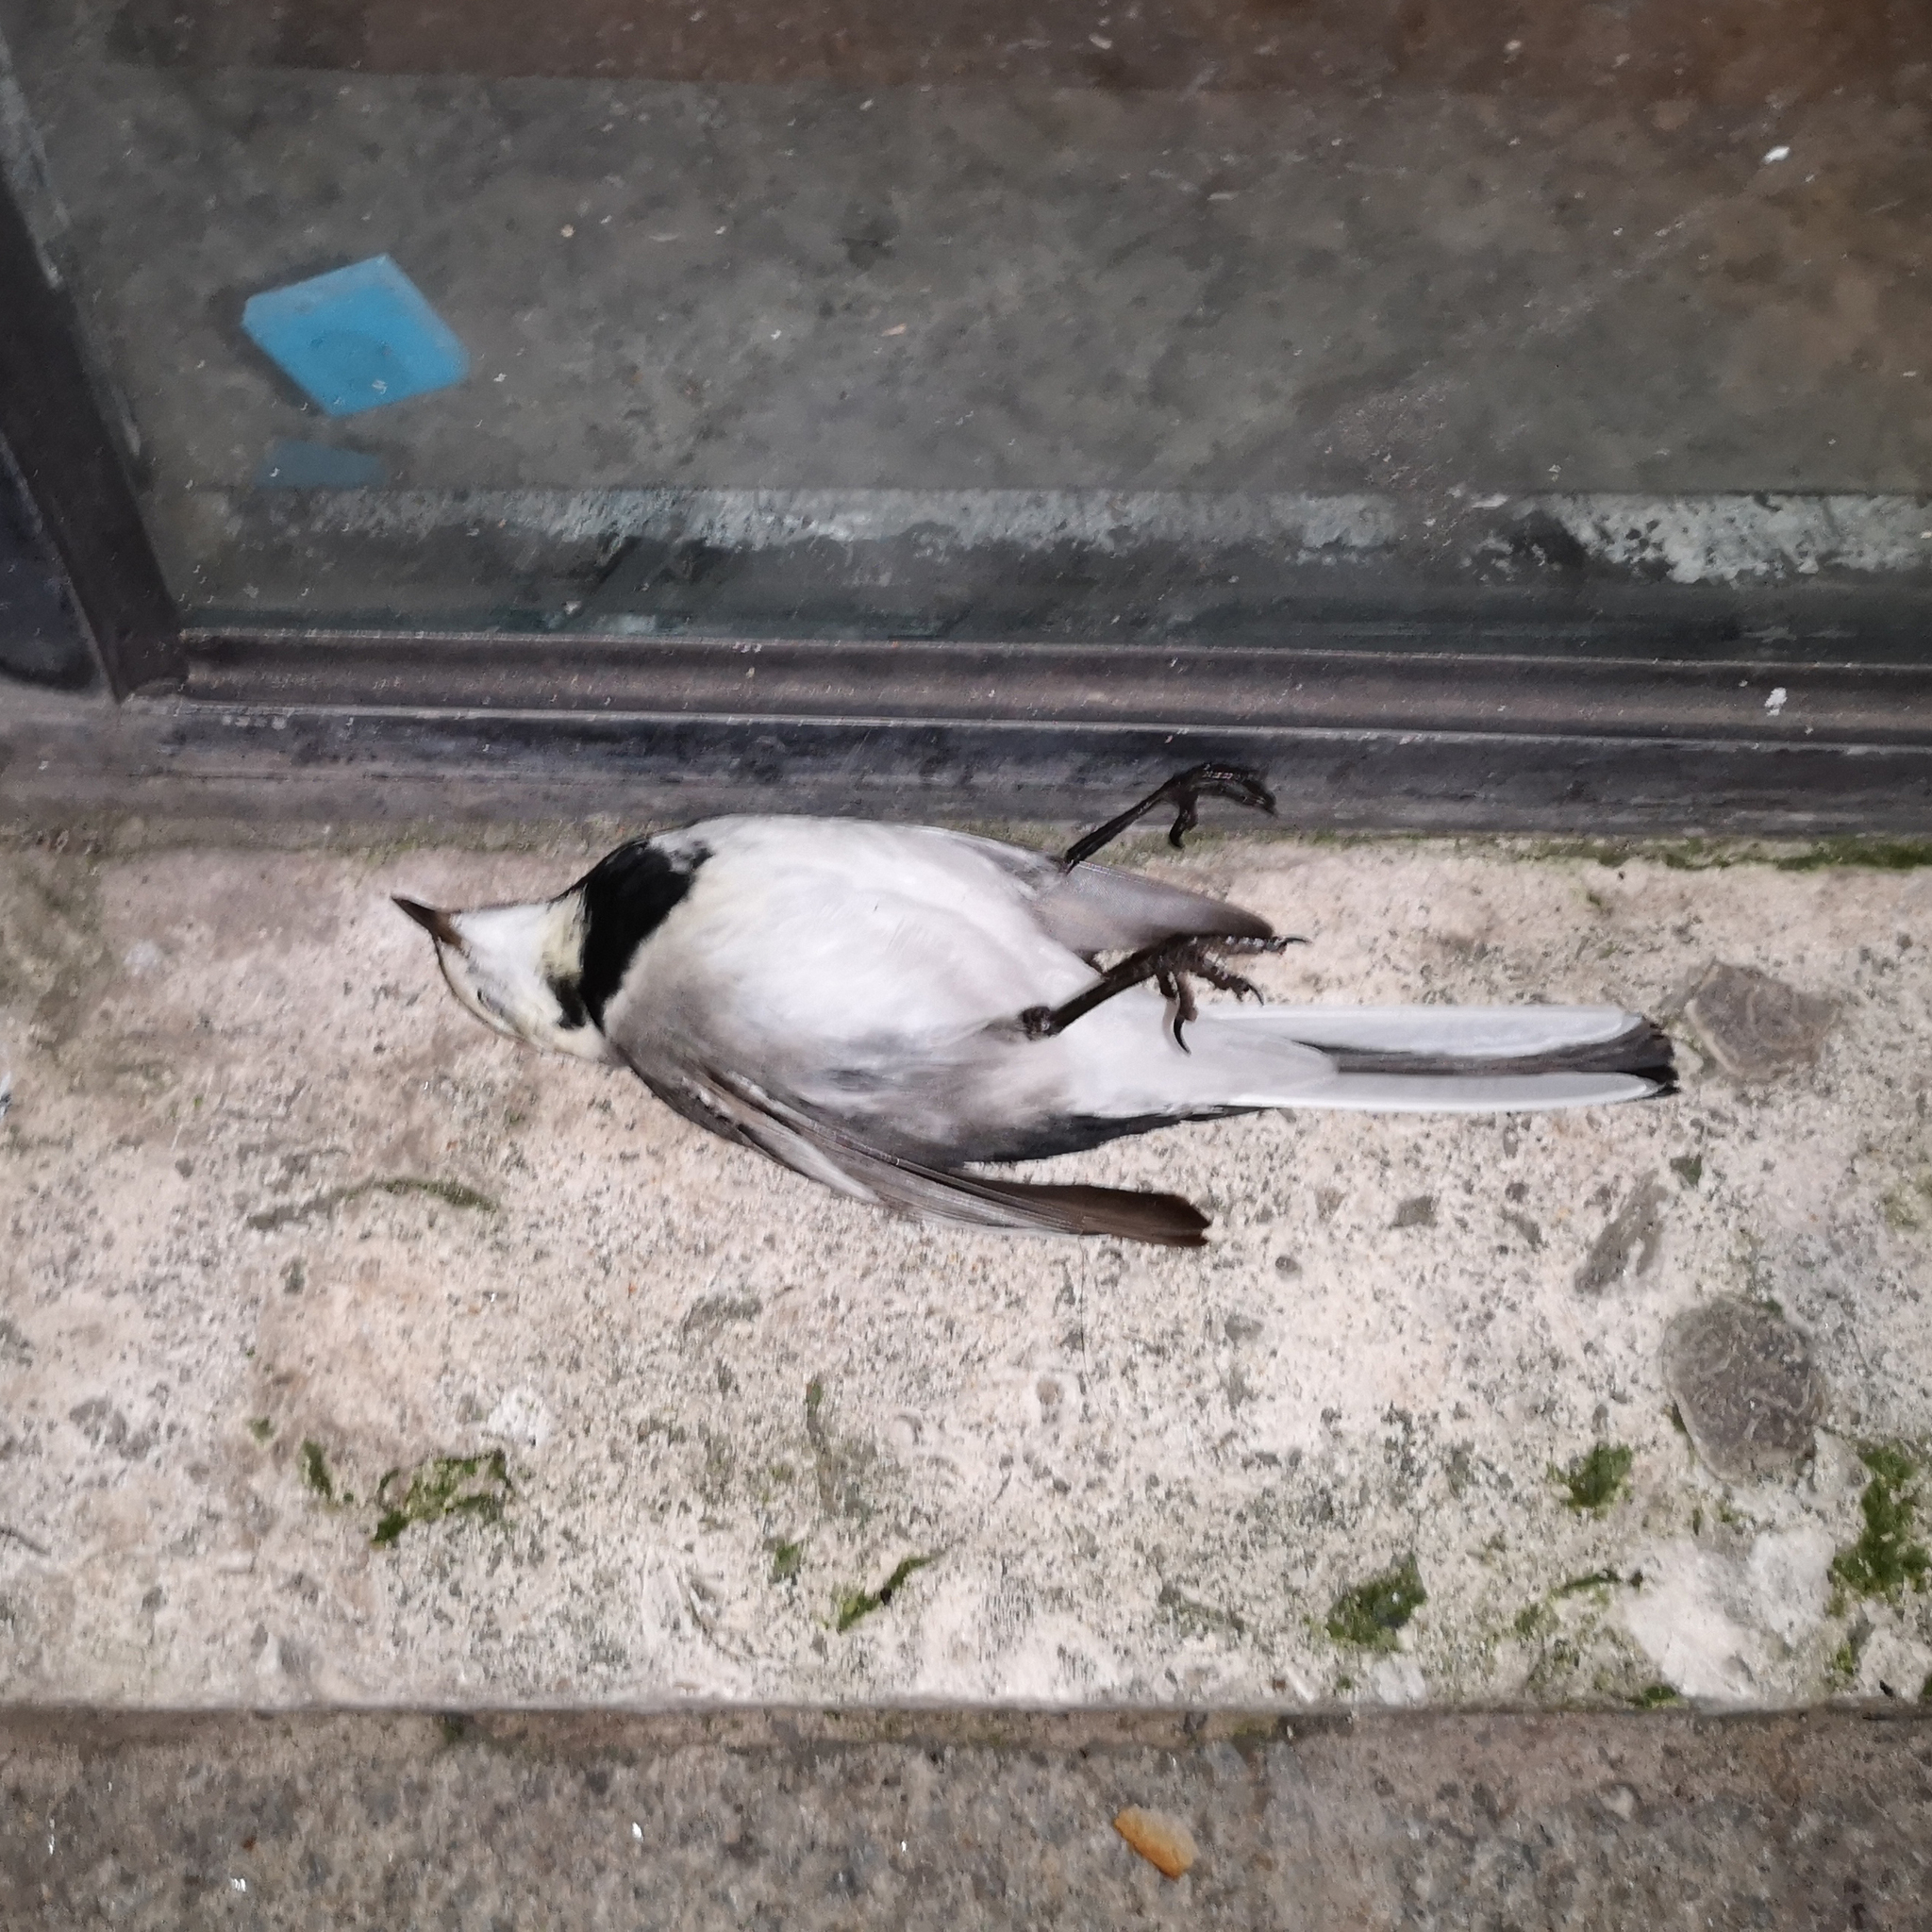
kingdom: Animalia
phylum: Chordata
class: Aves
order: Passeriformes
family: Motacillidae
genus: Motacilla
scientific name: Motacilla alba
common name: White wagtail
